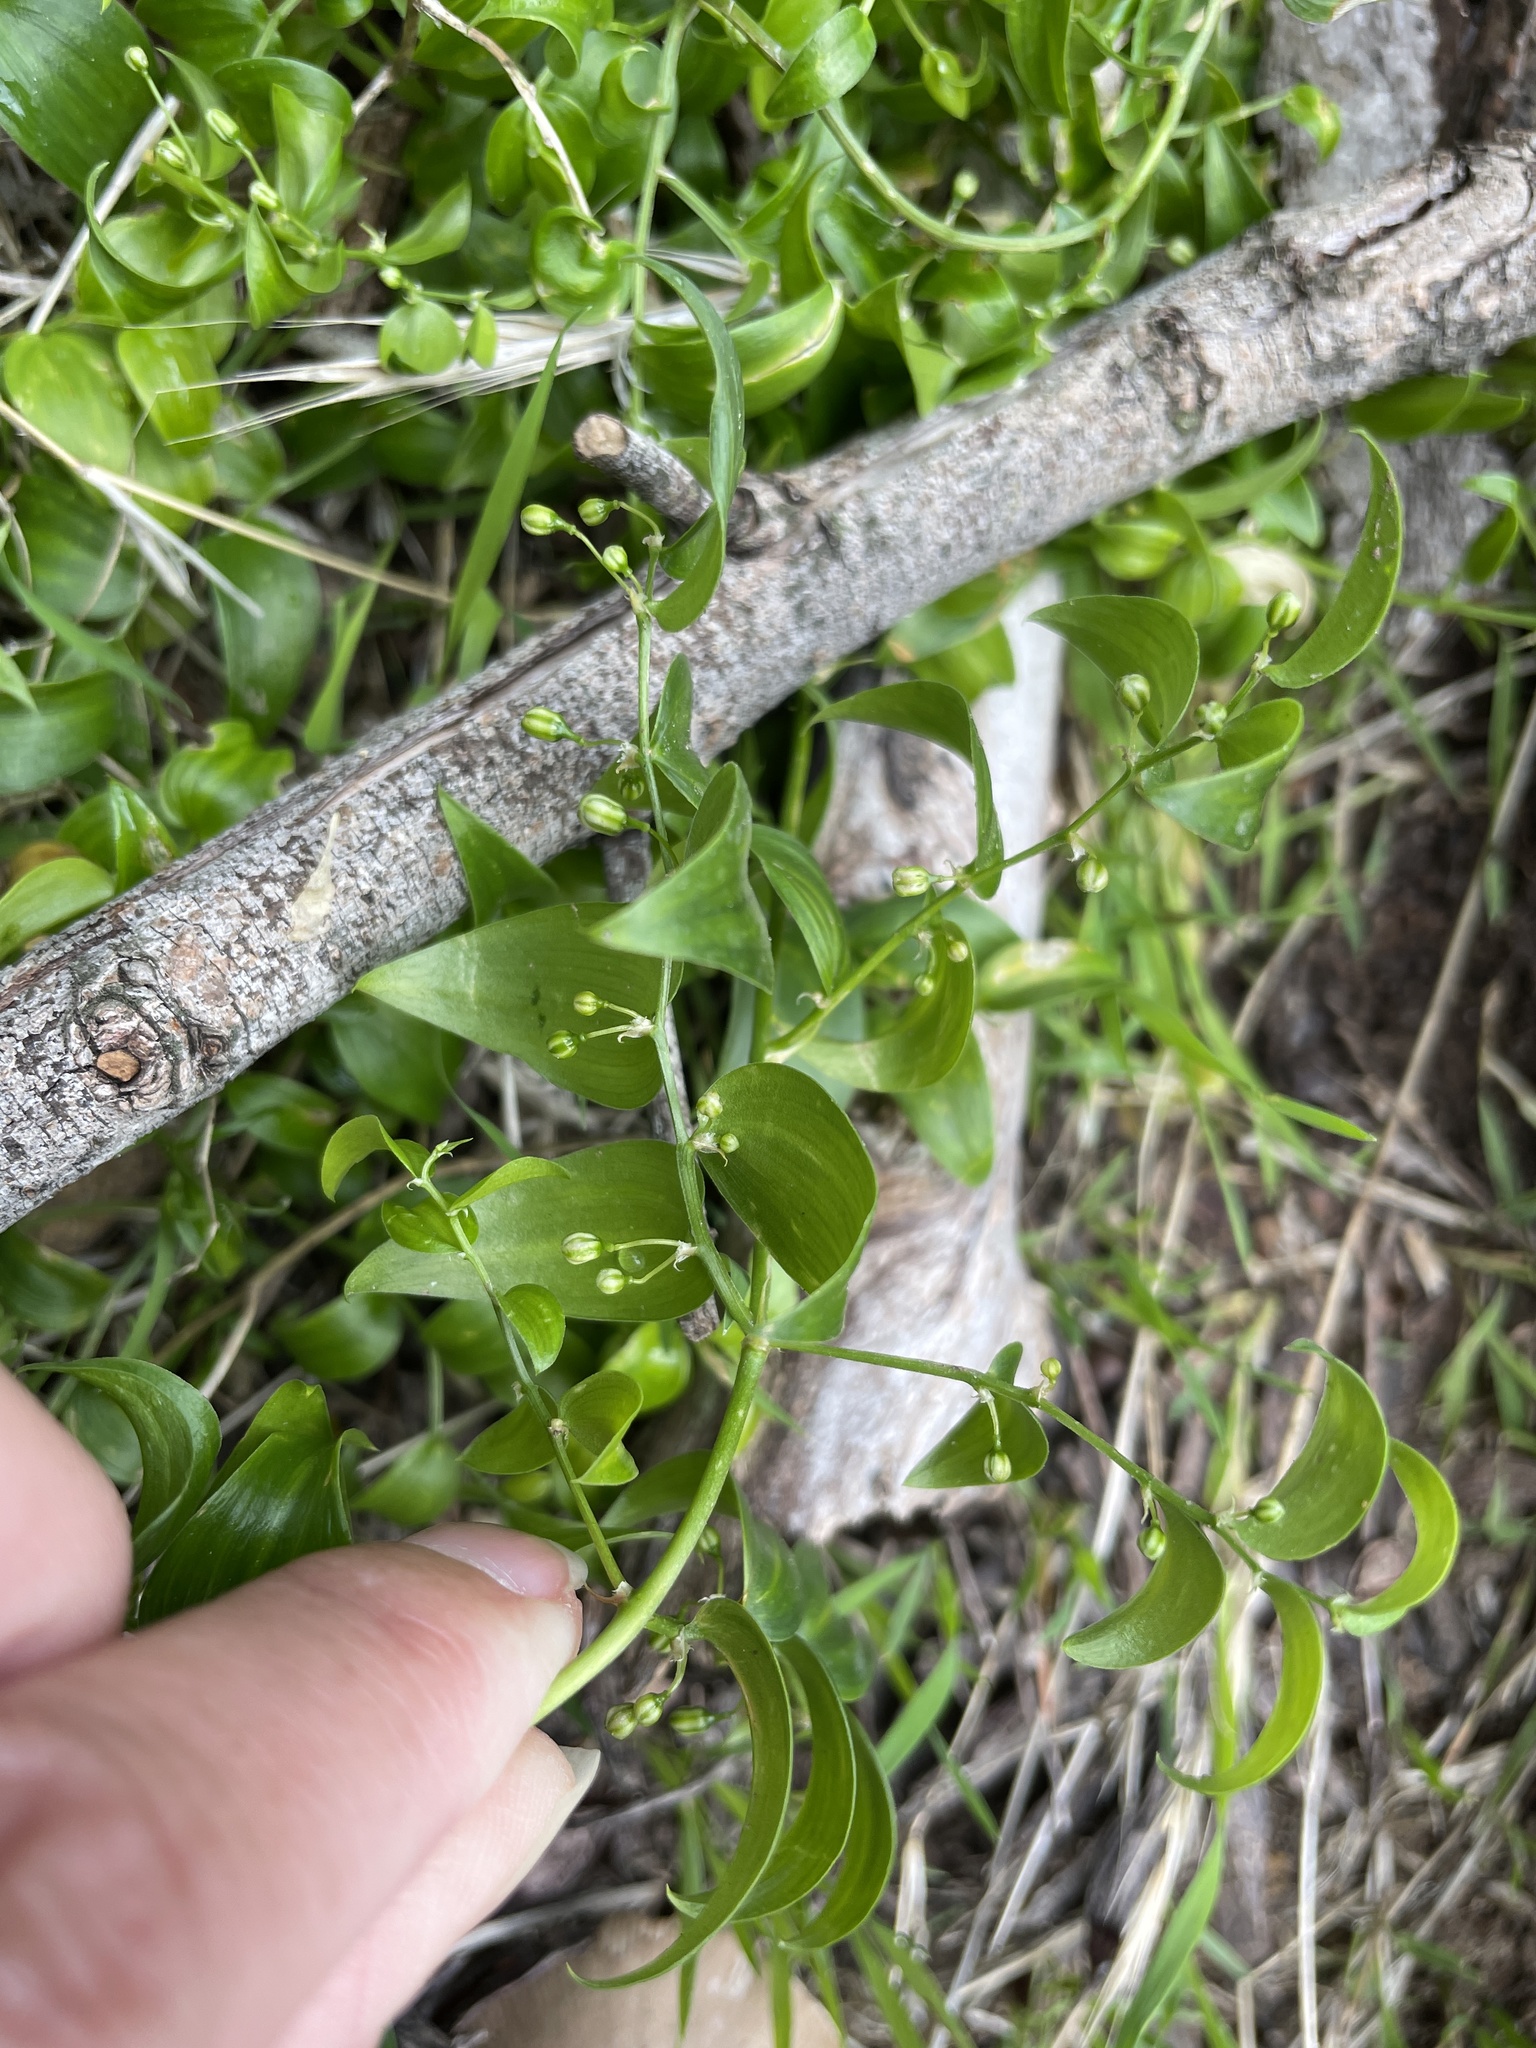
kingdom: Plantae
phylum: Tracheophyta
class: Liliopsida
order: Asparagales
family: Asparagaceae
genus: Asparagus
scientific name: Asparagus asparagoides
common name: African asparagus fern
